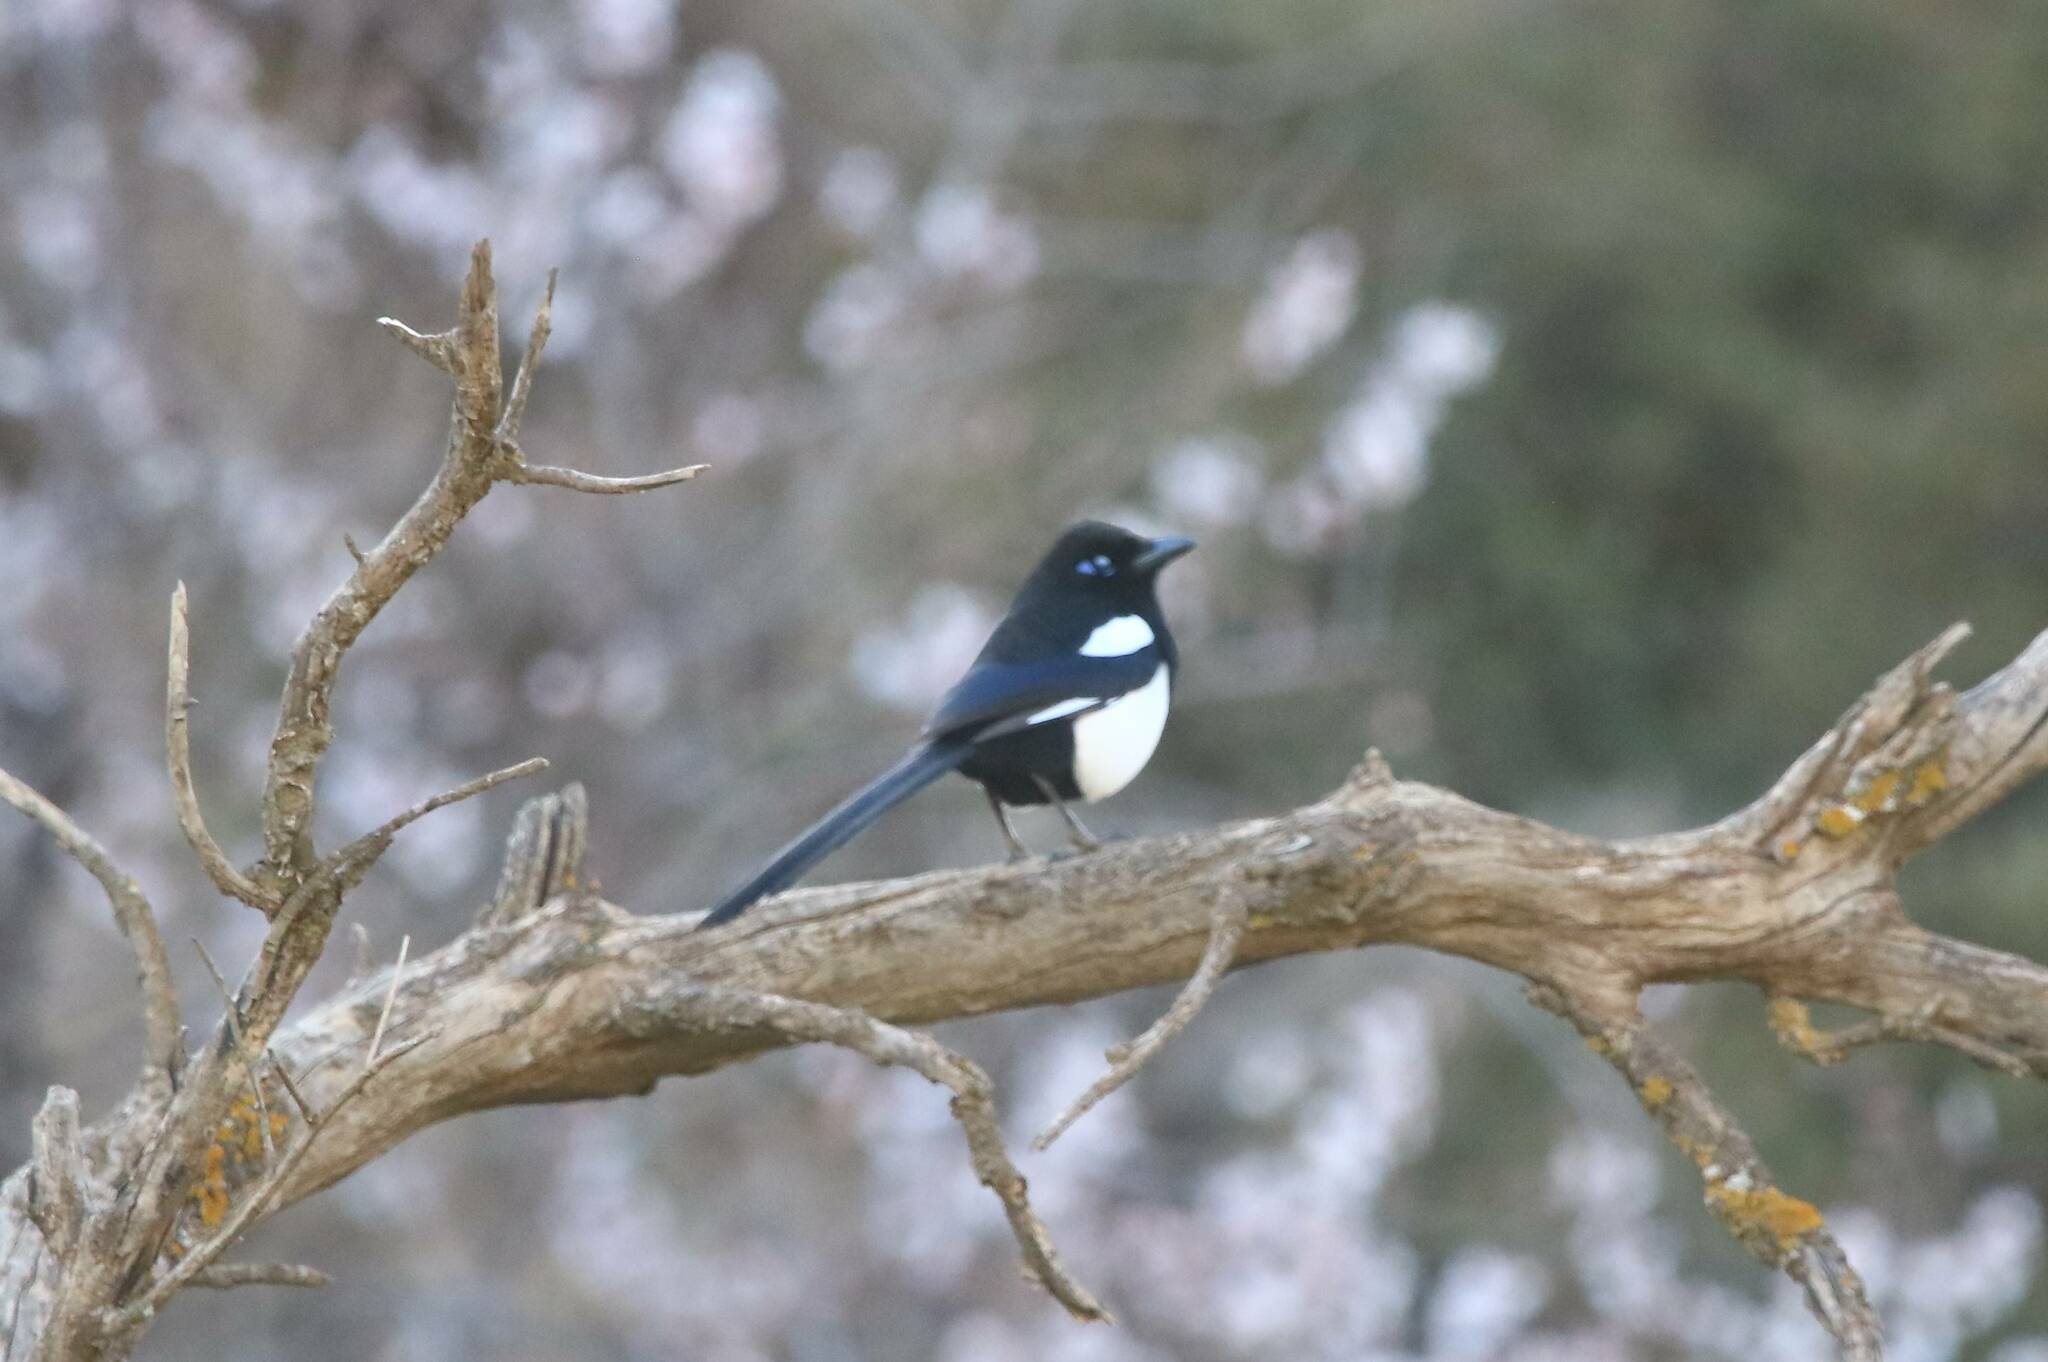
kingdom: Animalia
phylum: Chordata
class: Aves
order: Passeriformes
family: Corvidae
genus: Pica
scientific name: Pica mauritanica
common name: Maghreb magpie
